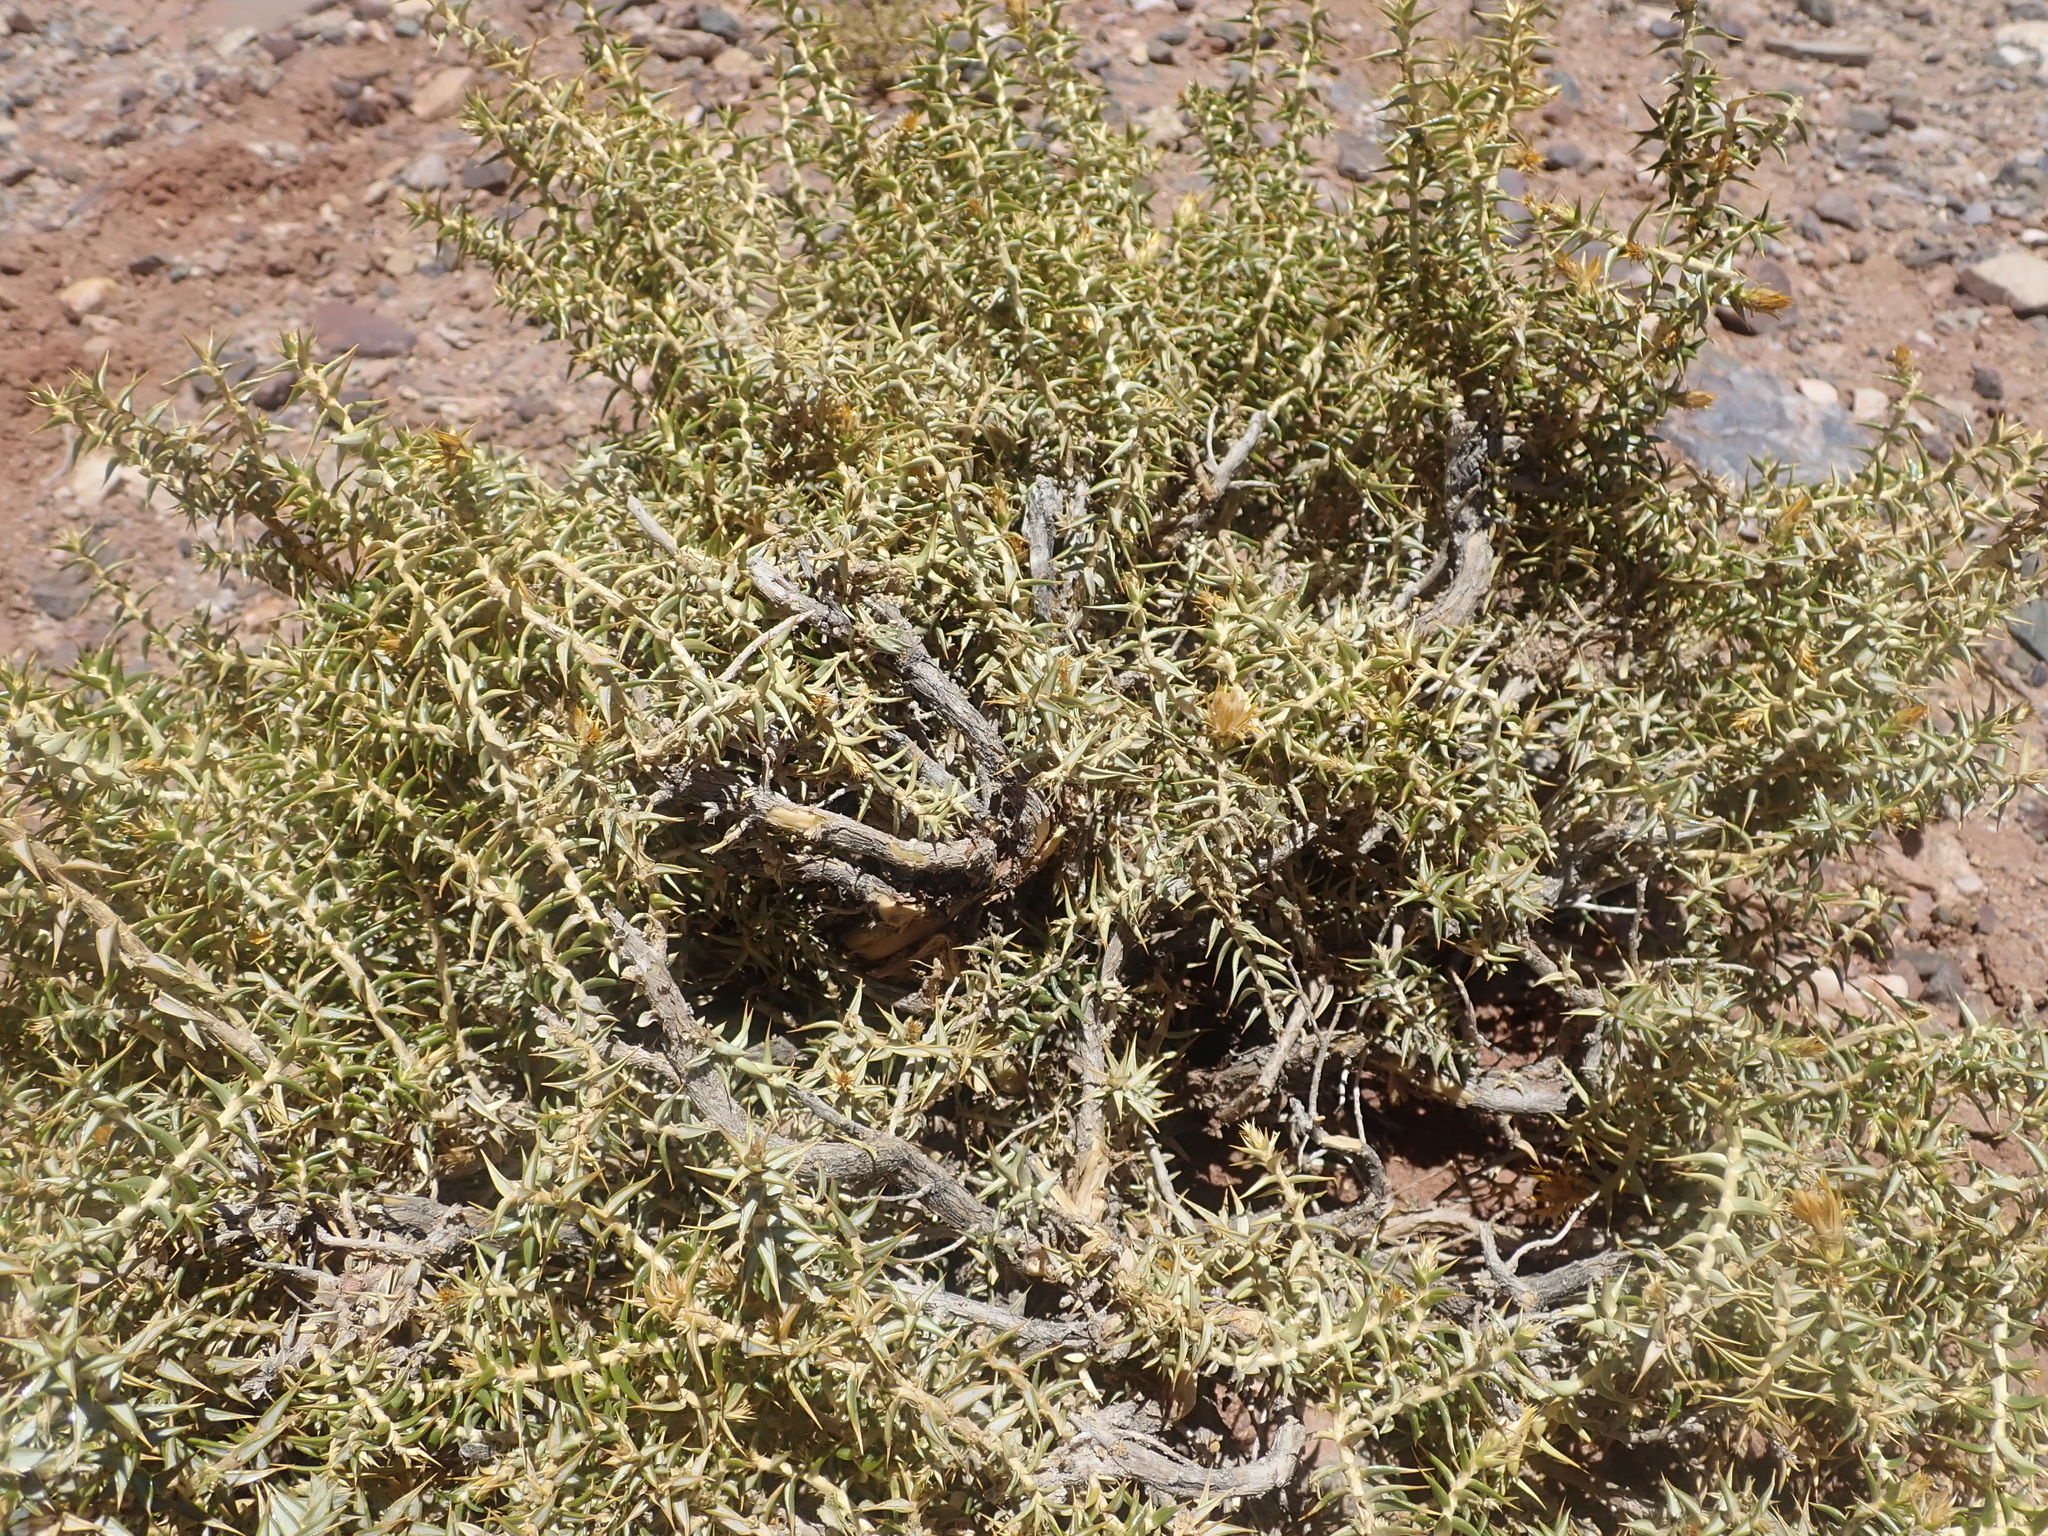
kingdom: Plantae
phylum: Tracheophyta
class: Magnoliopsida
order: Asterales
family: Asteraceae
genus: Chuquiraga
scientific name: Chuquiraga erinacea
